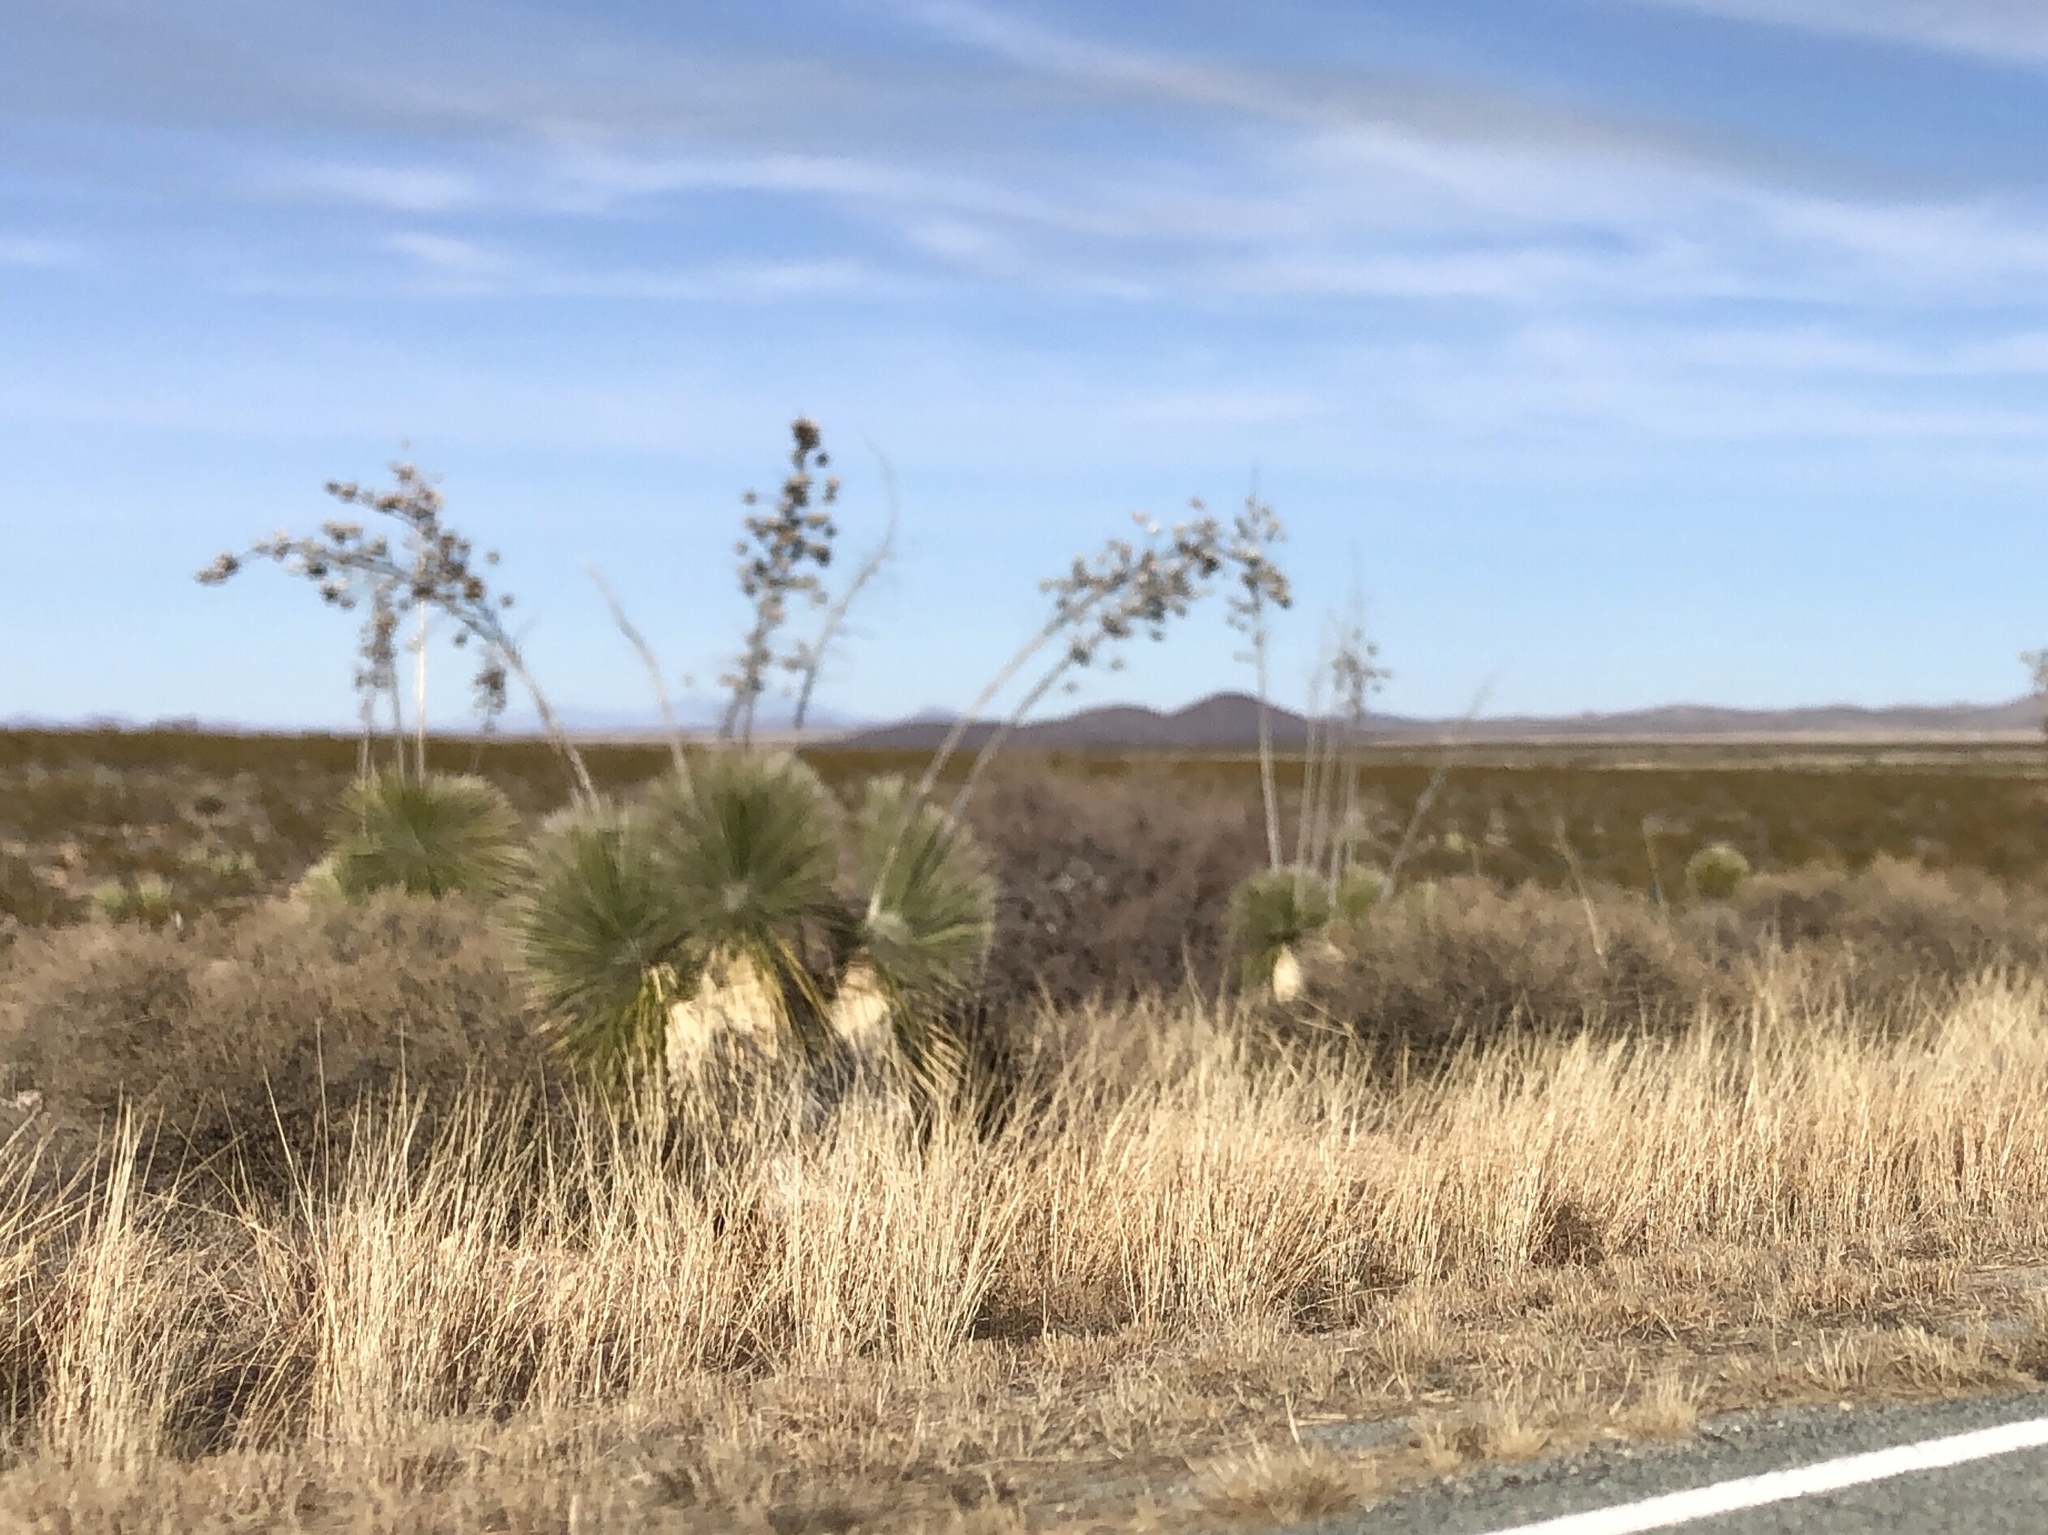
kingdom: Plantae
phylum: Tracheophyta
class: Liliopsida
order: Asparagales
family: Asparagaceae
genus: Yucca
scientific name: Yucca elata
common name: Palmella
